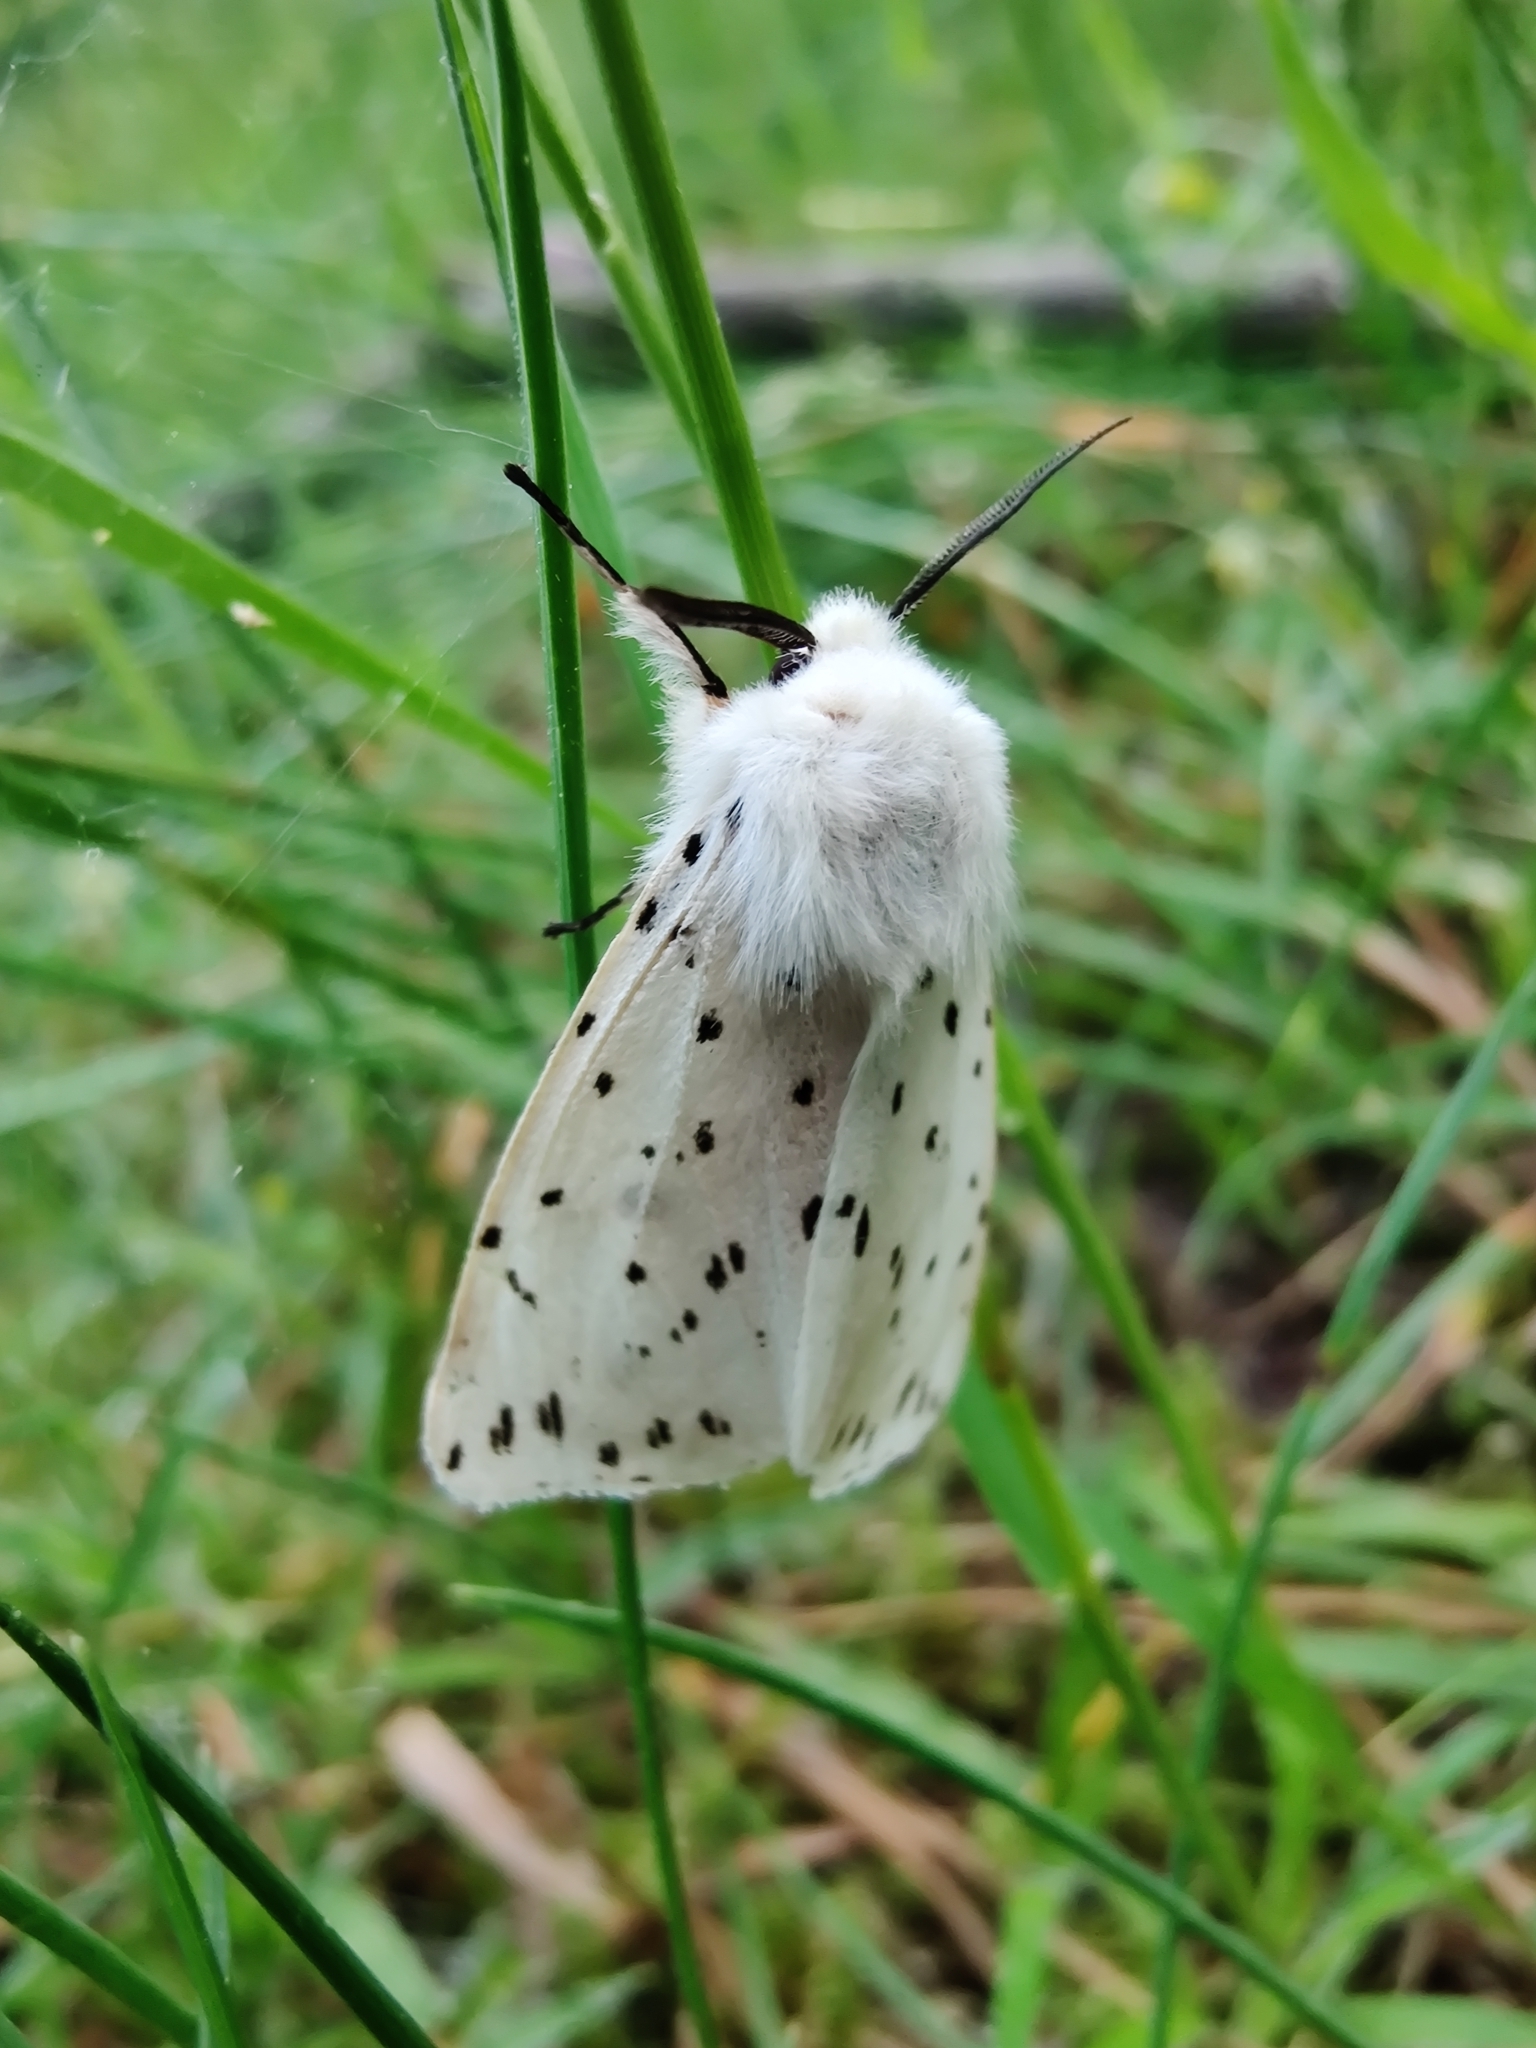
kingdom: Animalia
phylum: Arthropoda
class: Insecta
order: Lepidoptera
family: Erebidae
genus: Spilosoma
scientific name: Spilosoma lubricipeda
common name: White ermine
